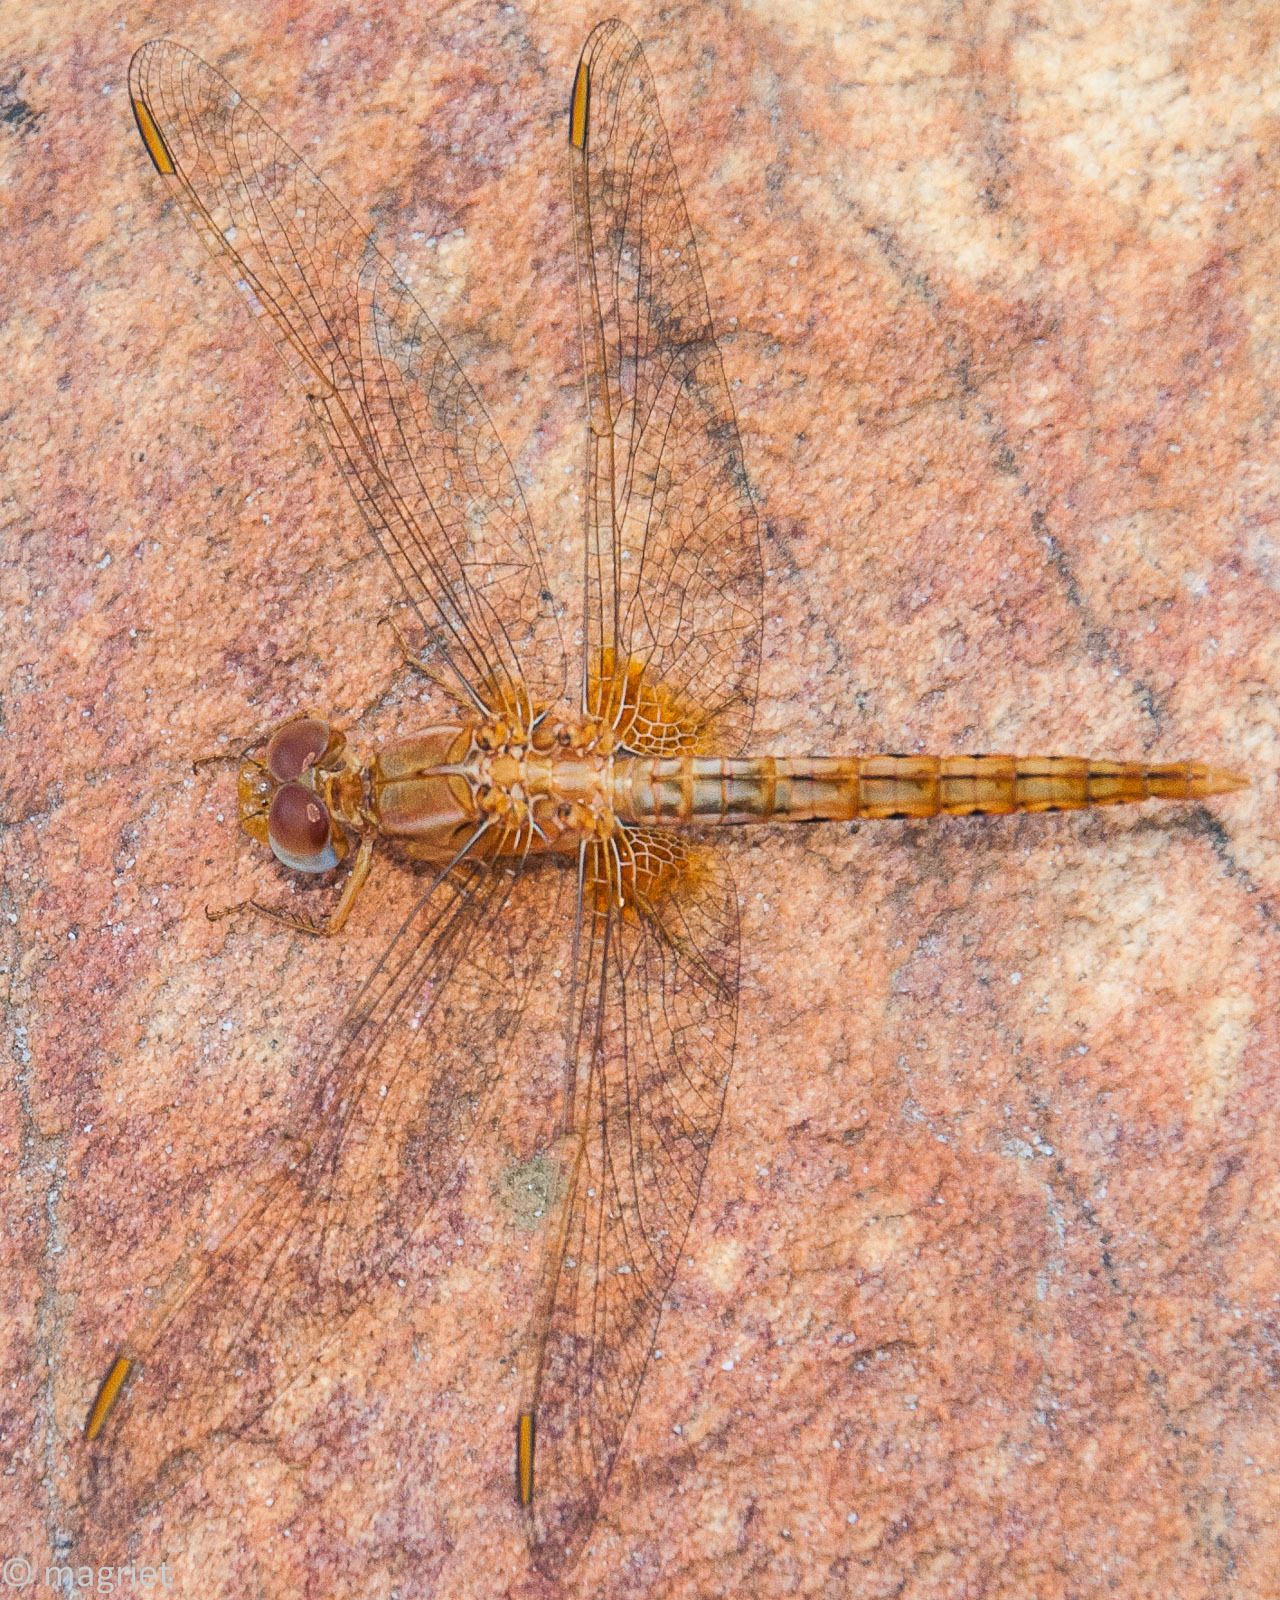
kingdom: Animalia
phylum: Arthropoda
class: Insecta
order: Odonata
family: Libellulidae
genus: Crocothemis
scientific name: Crocothemis sanguinolenta
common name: Little scarlet
